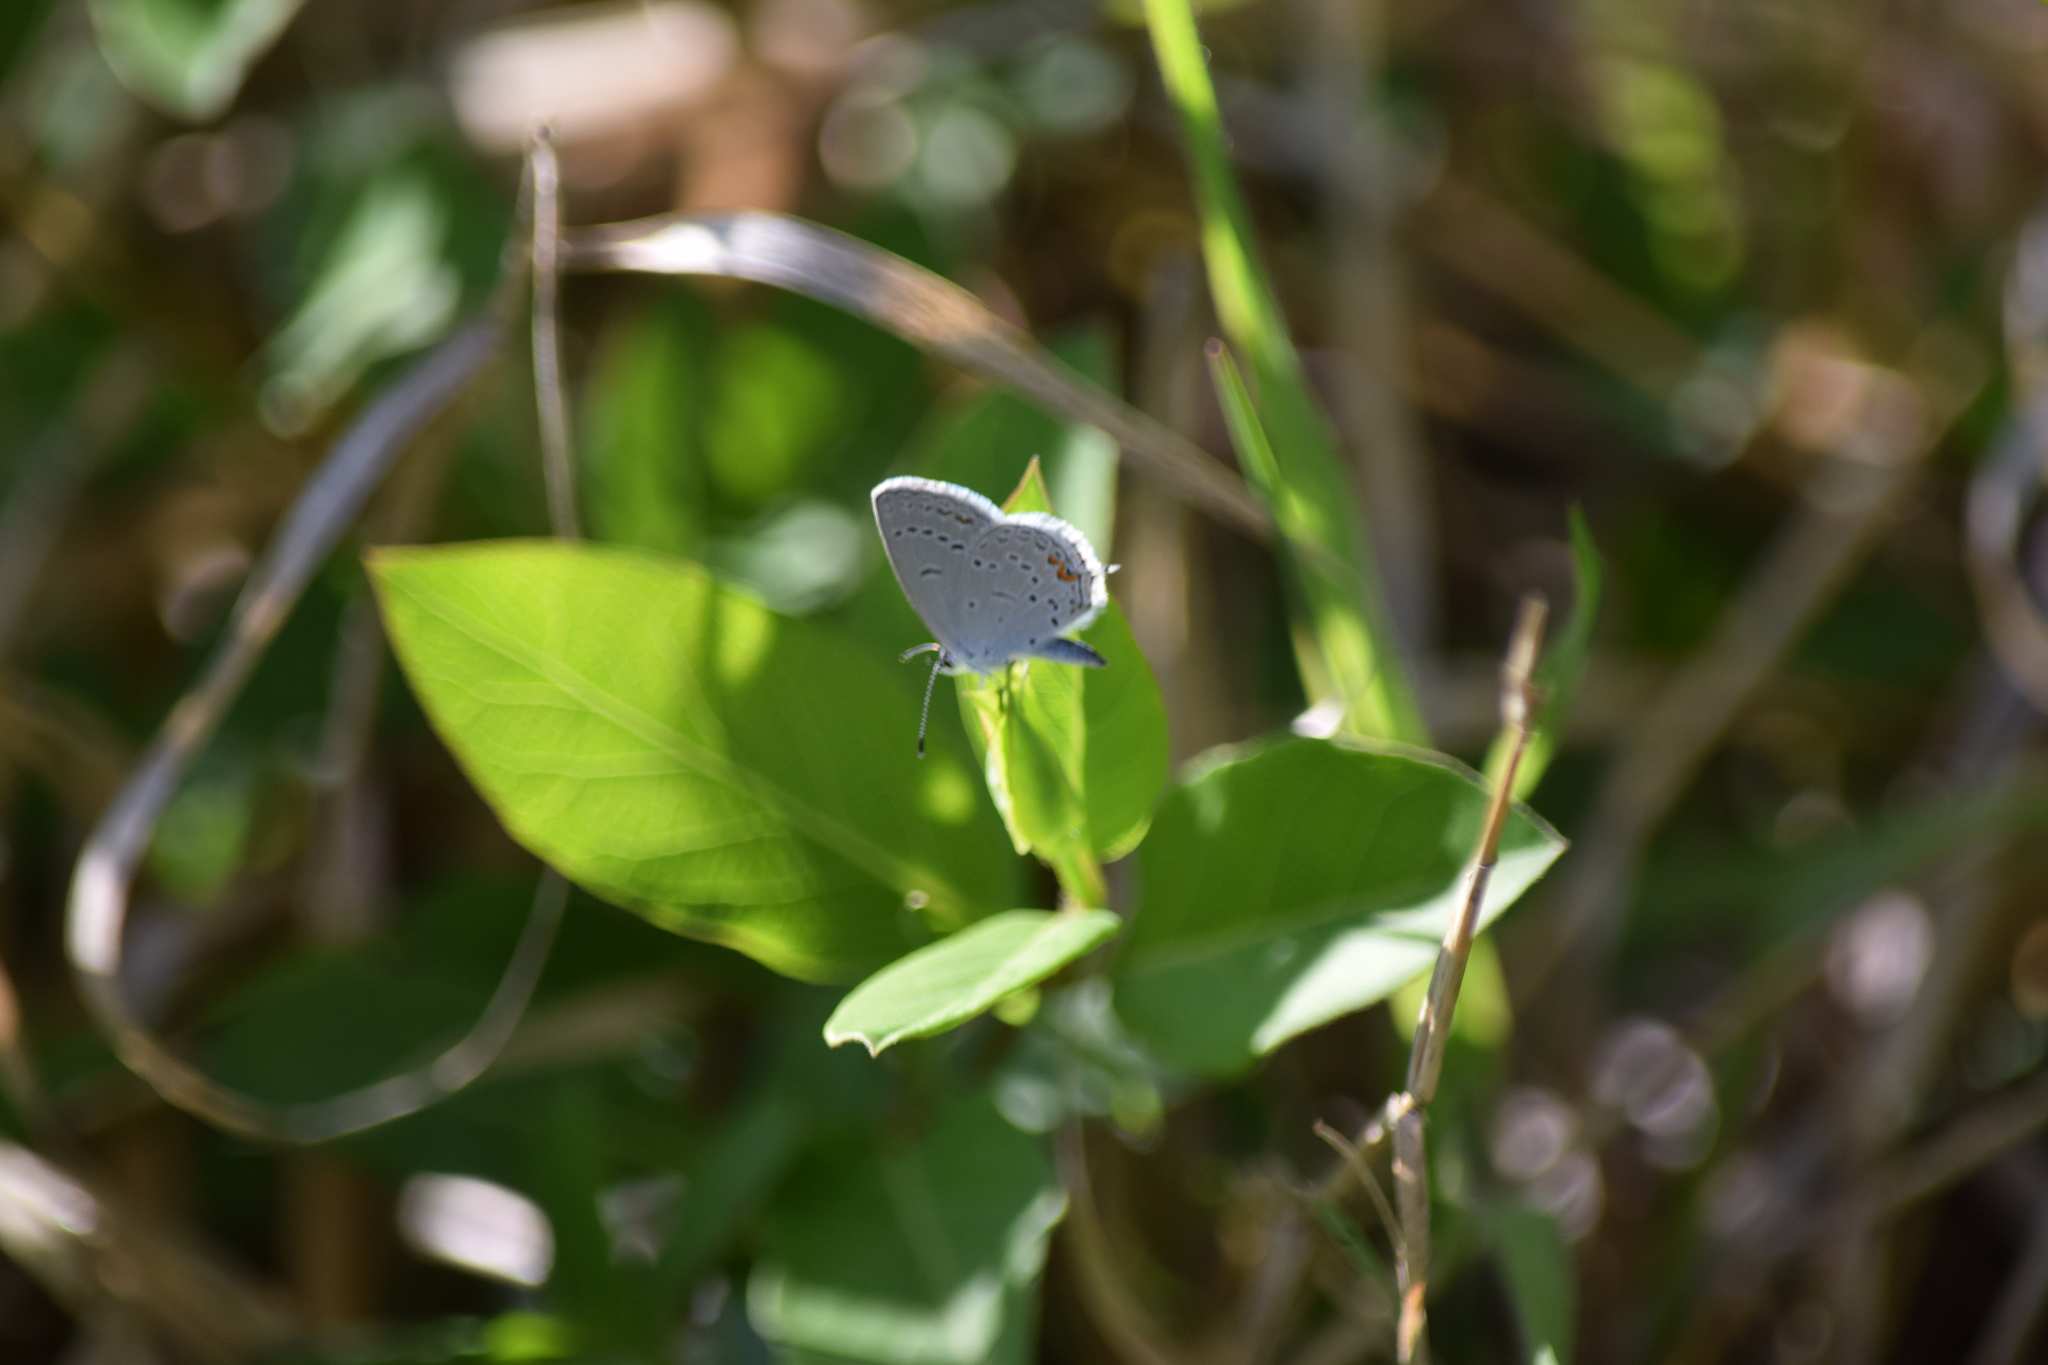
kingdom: Animalia
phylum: Arthropoda
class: Insecta
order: Lepidoptera
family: Lycaenidae
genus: Elkalyce
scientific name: Elkalyce comyntas
